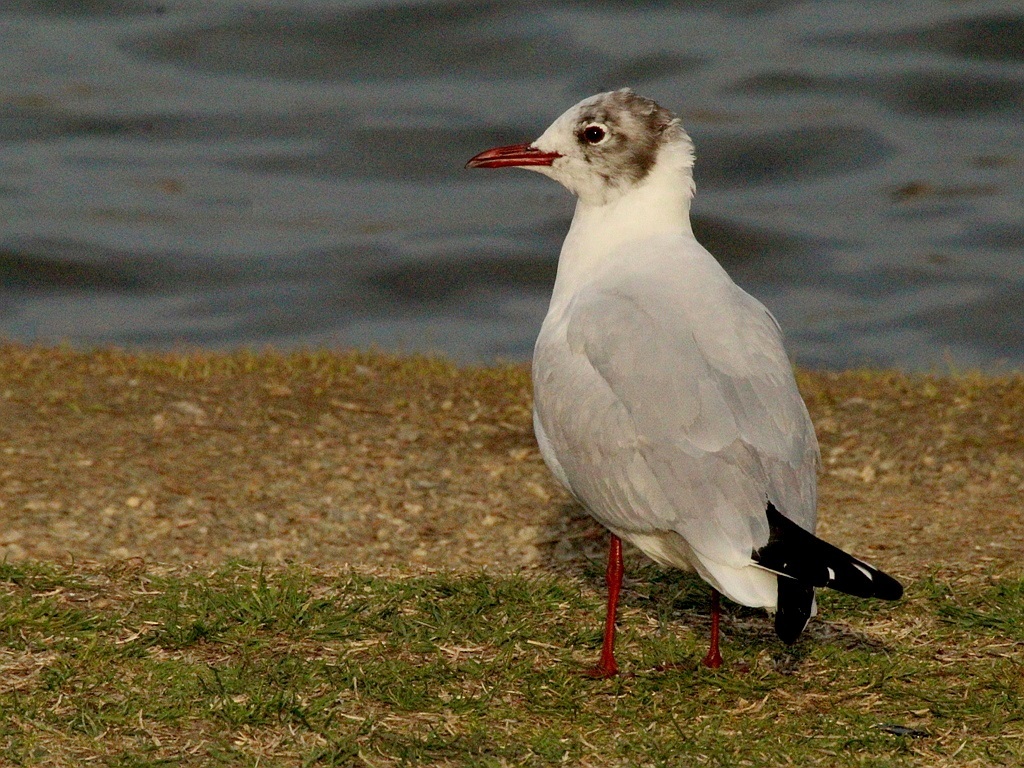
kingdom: Animalia
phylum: Chordata
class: Aves
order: Charadriiformes
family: Laridae
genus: Chroicocephalus
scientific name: Chroicocephalus ridibundus
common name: Black-headed gull
